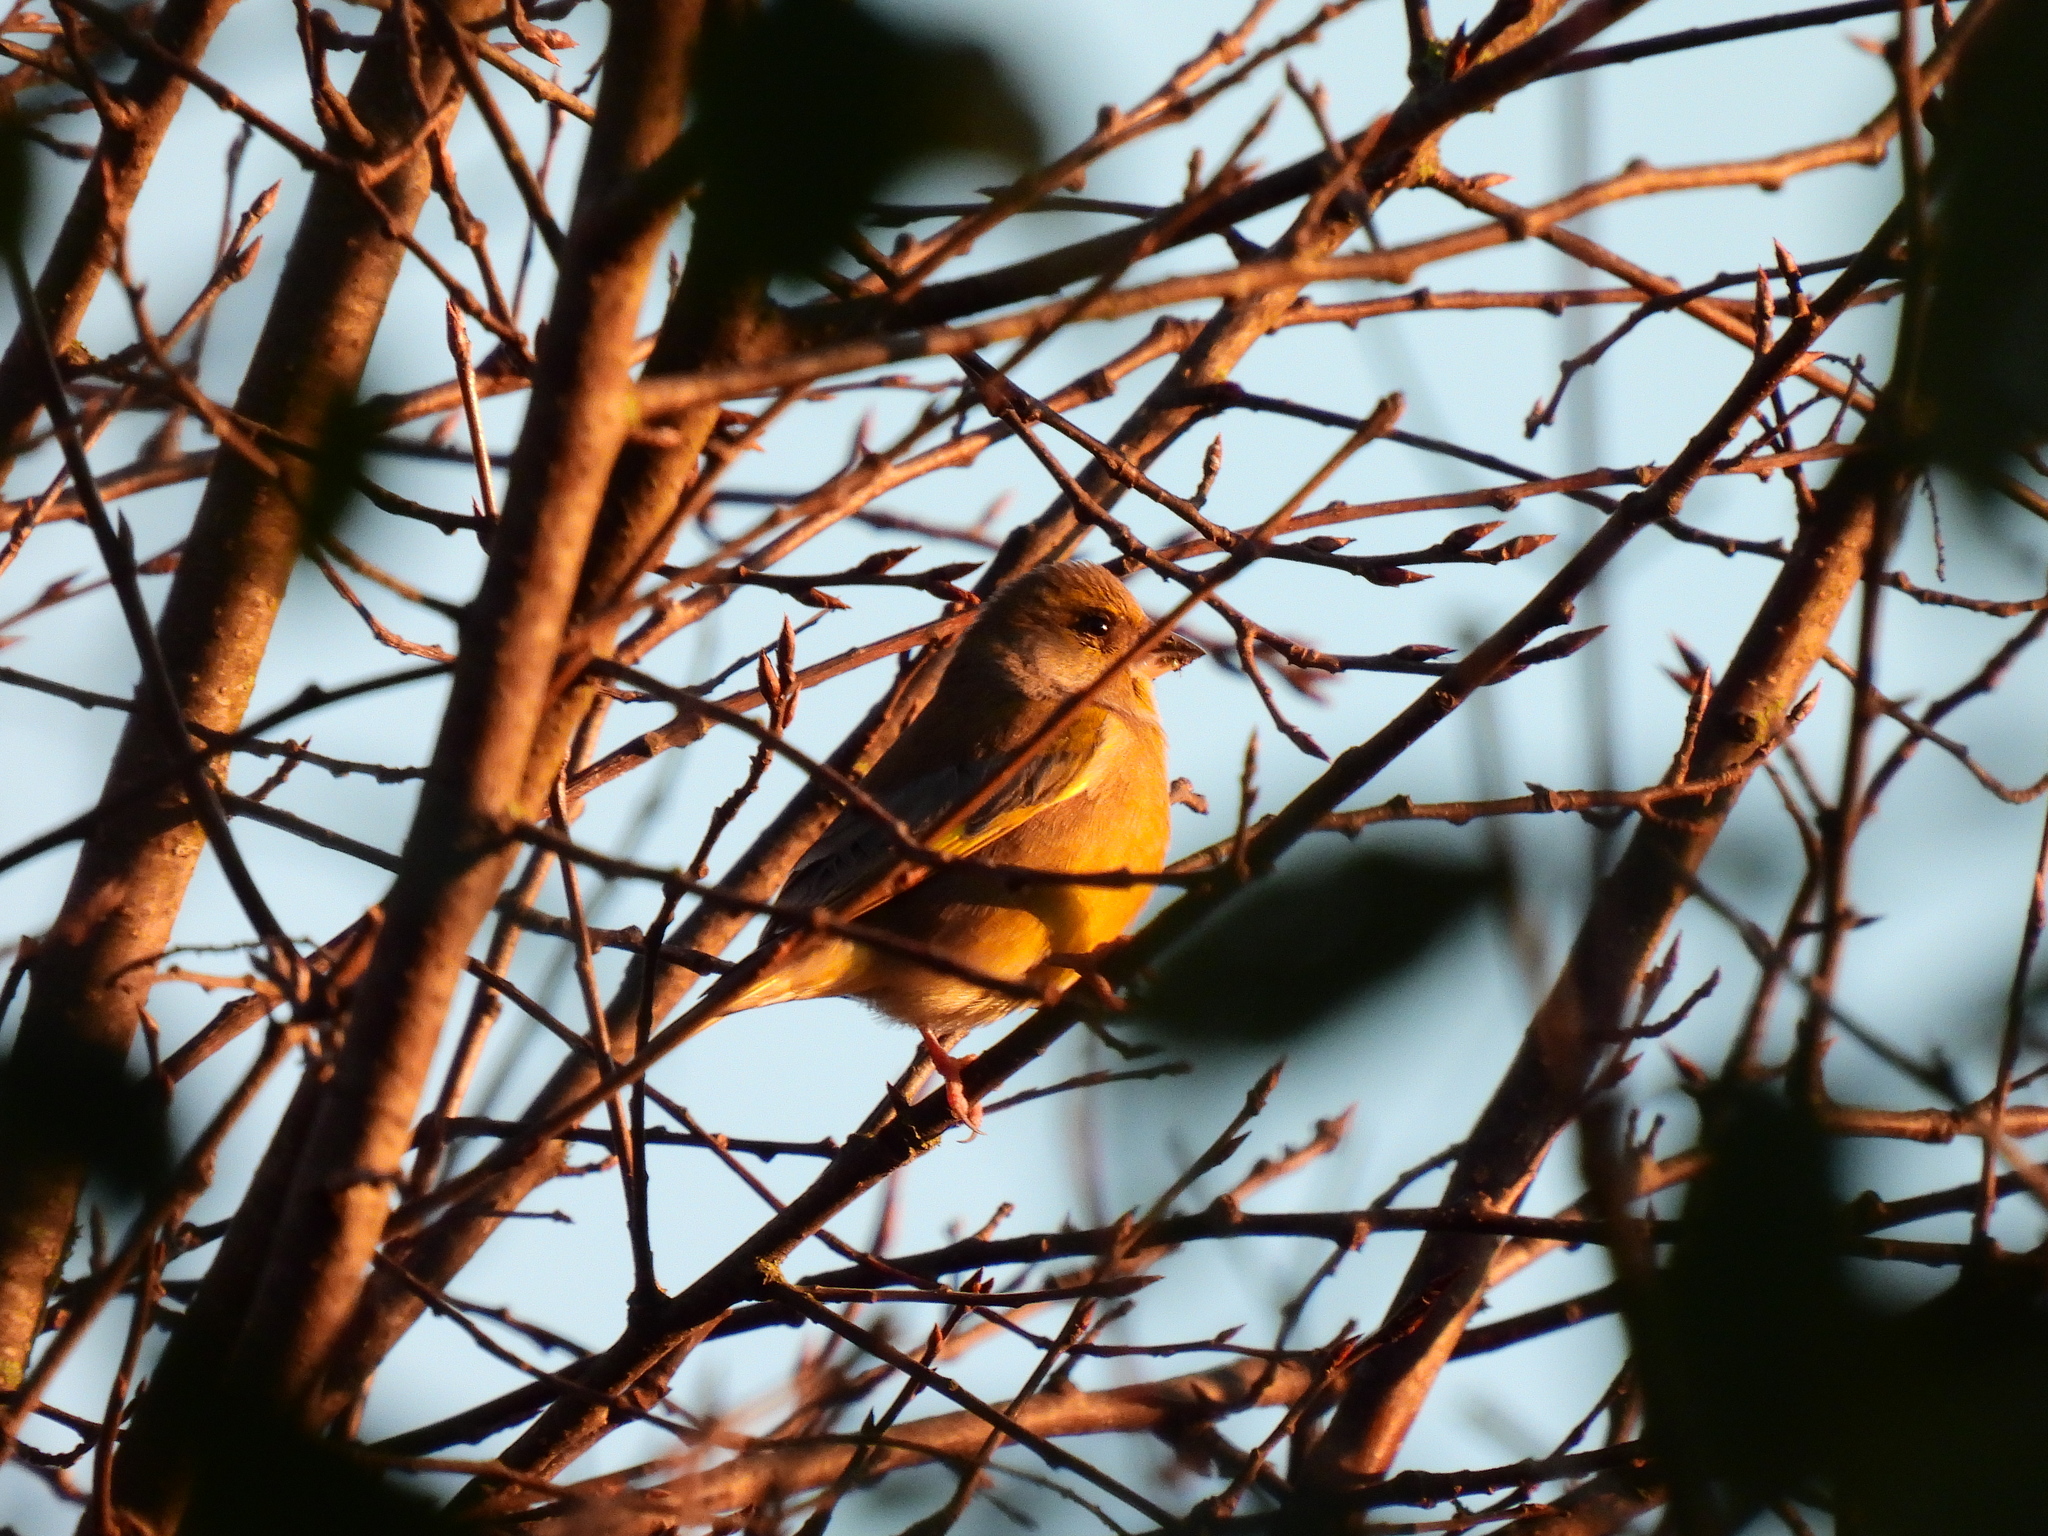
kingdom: Plantae
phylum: Tracheophyta
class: Liliopsida
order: Poales
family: Poaceae
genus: Chloris
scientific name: Chloris chloris
